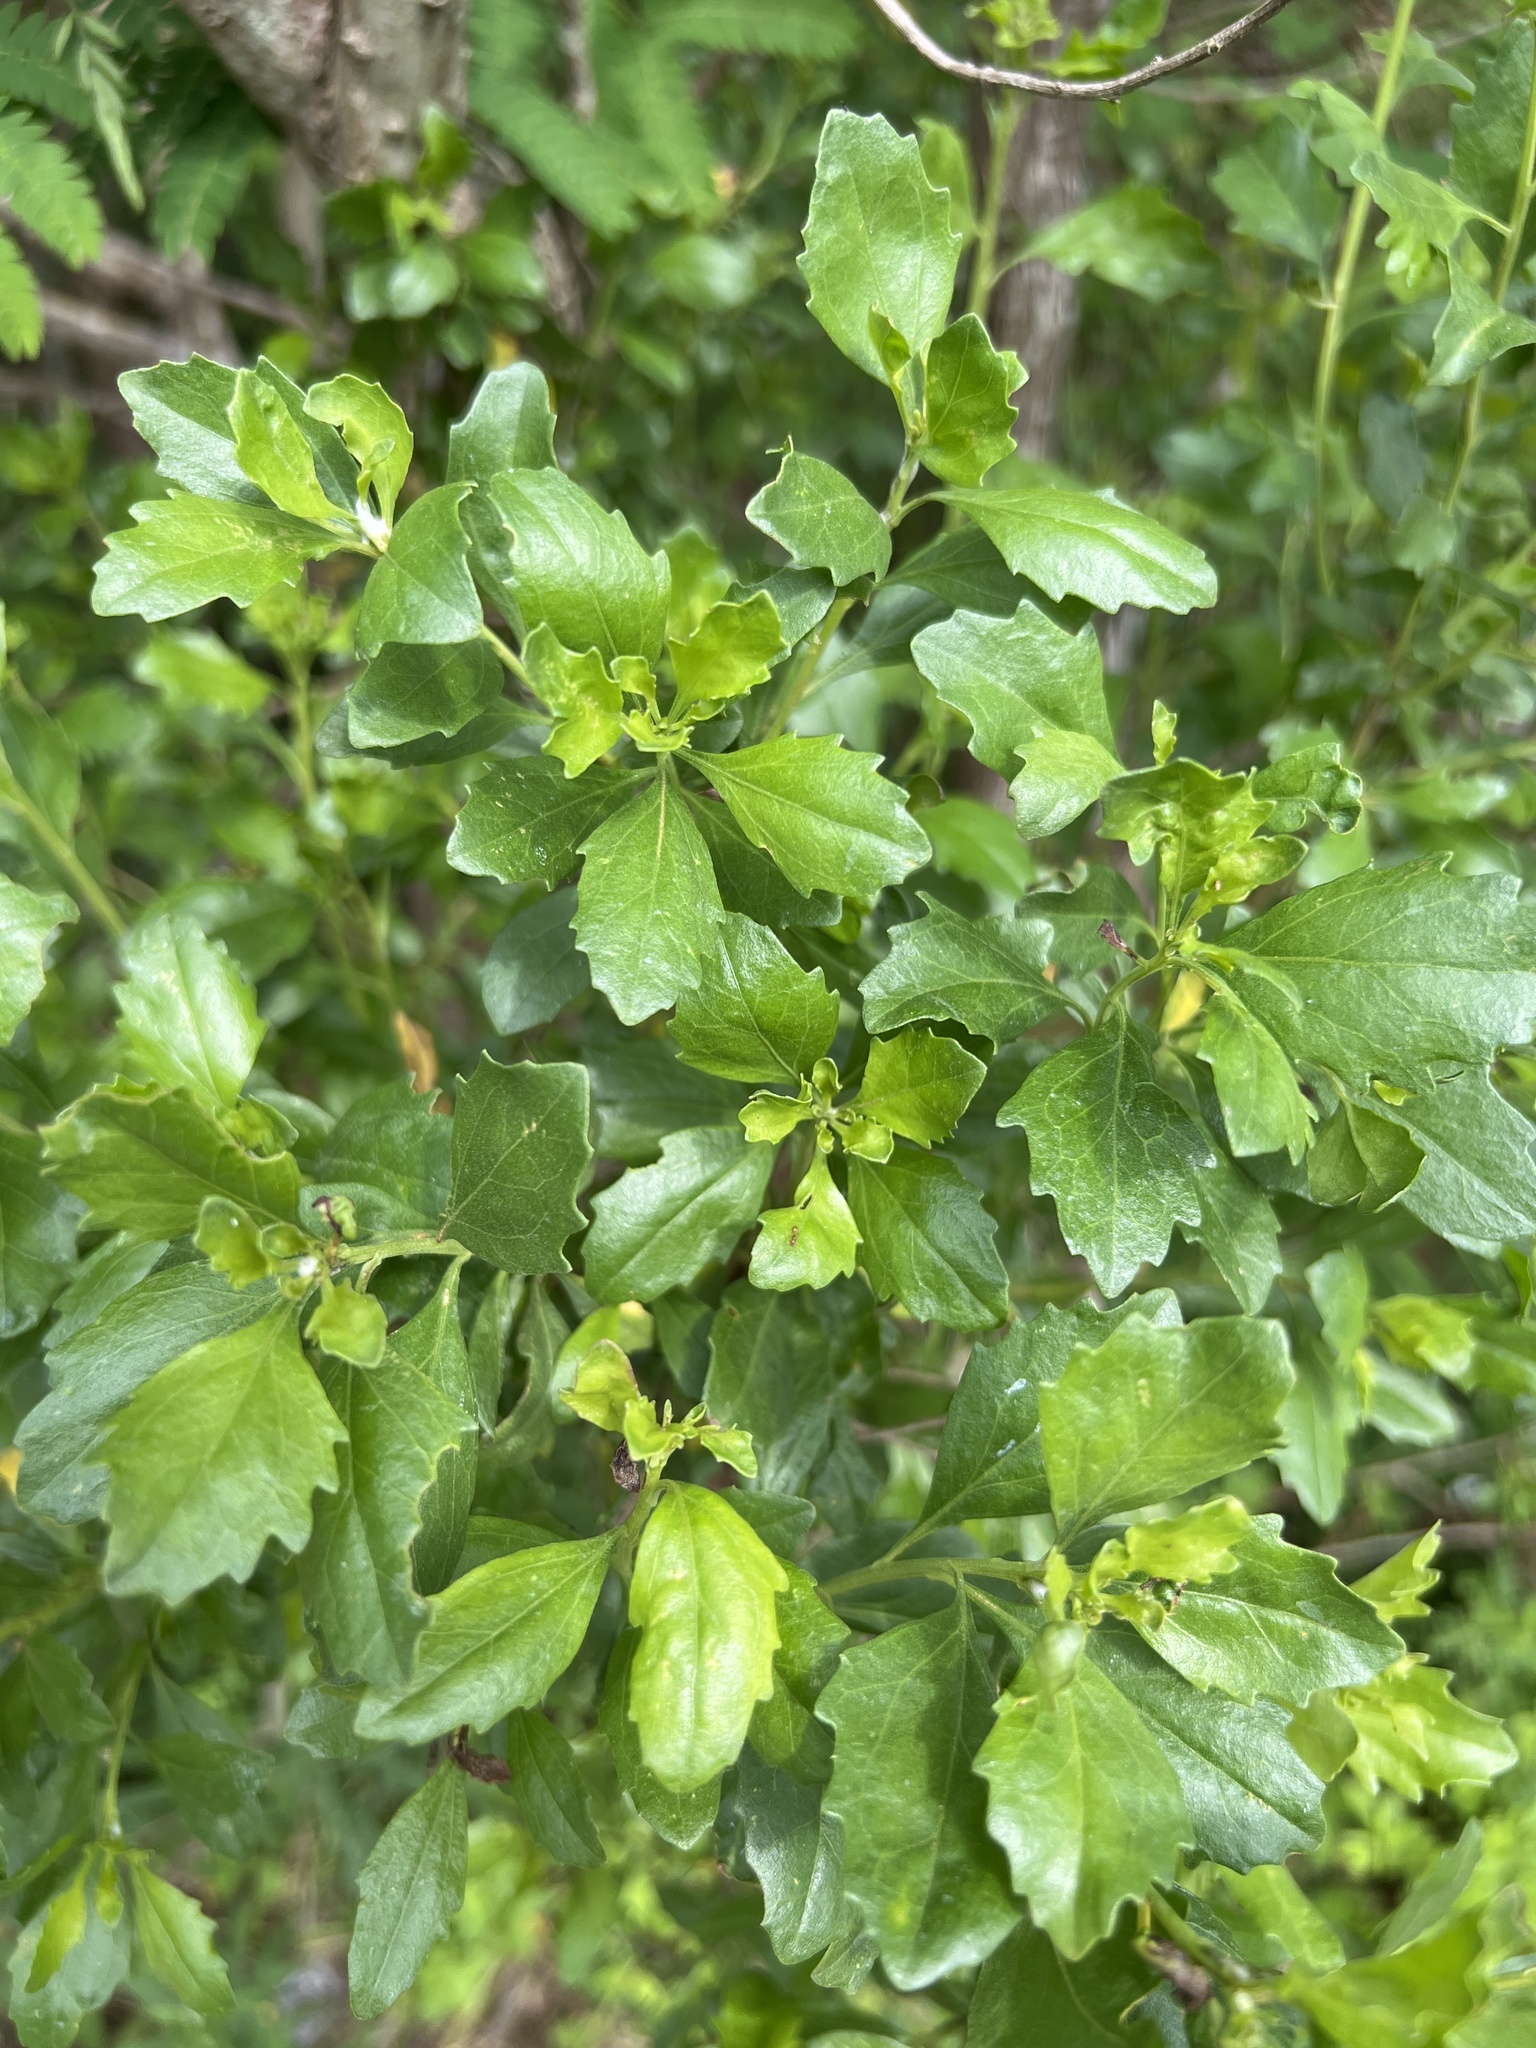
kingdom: Plantae
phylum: Tracheophyta
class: Magnoliopsida
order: Asterales
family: Asteraceae
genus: Baccharis
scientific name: Baccharis halimifolia
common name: Eastern baccharis
